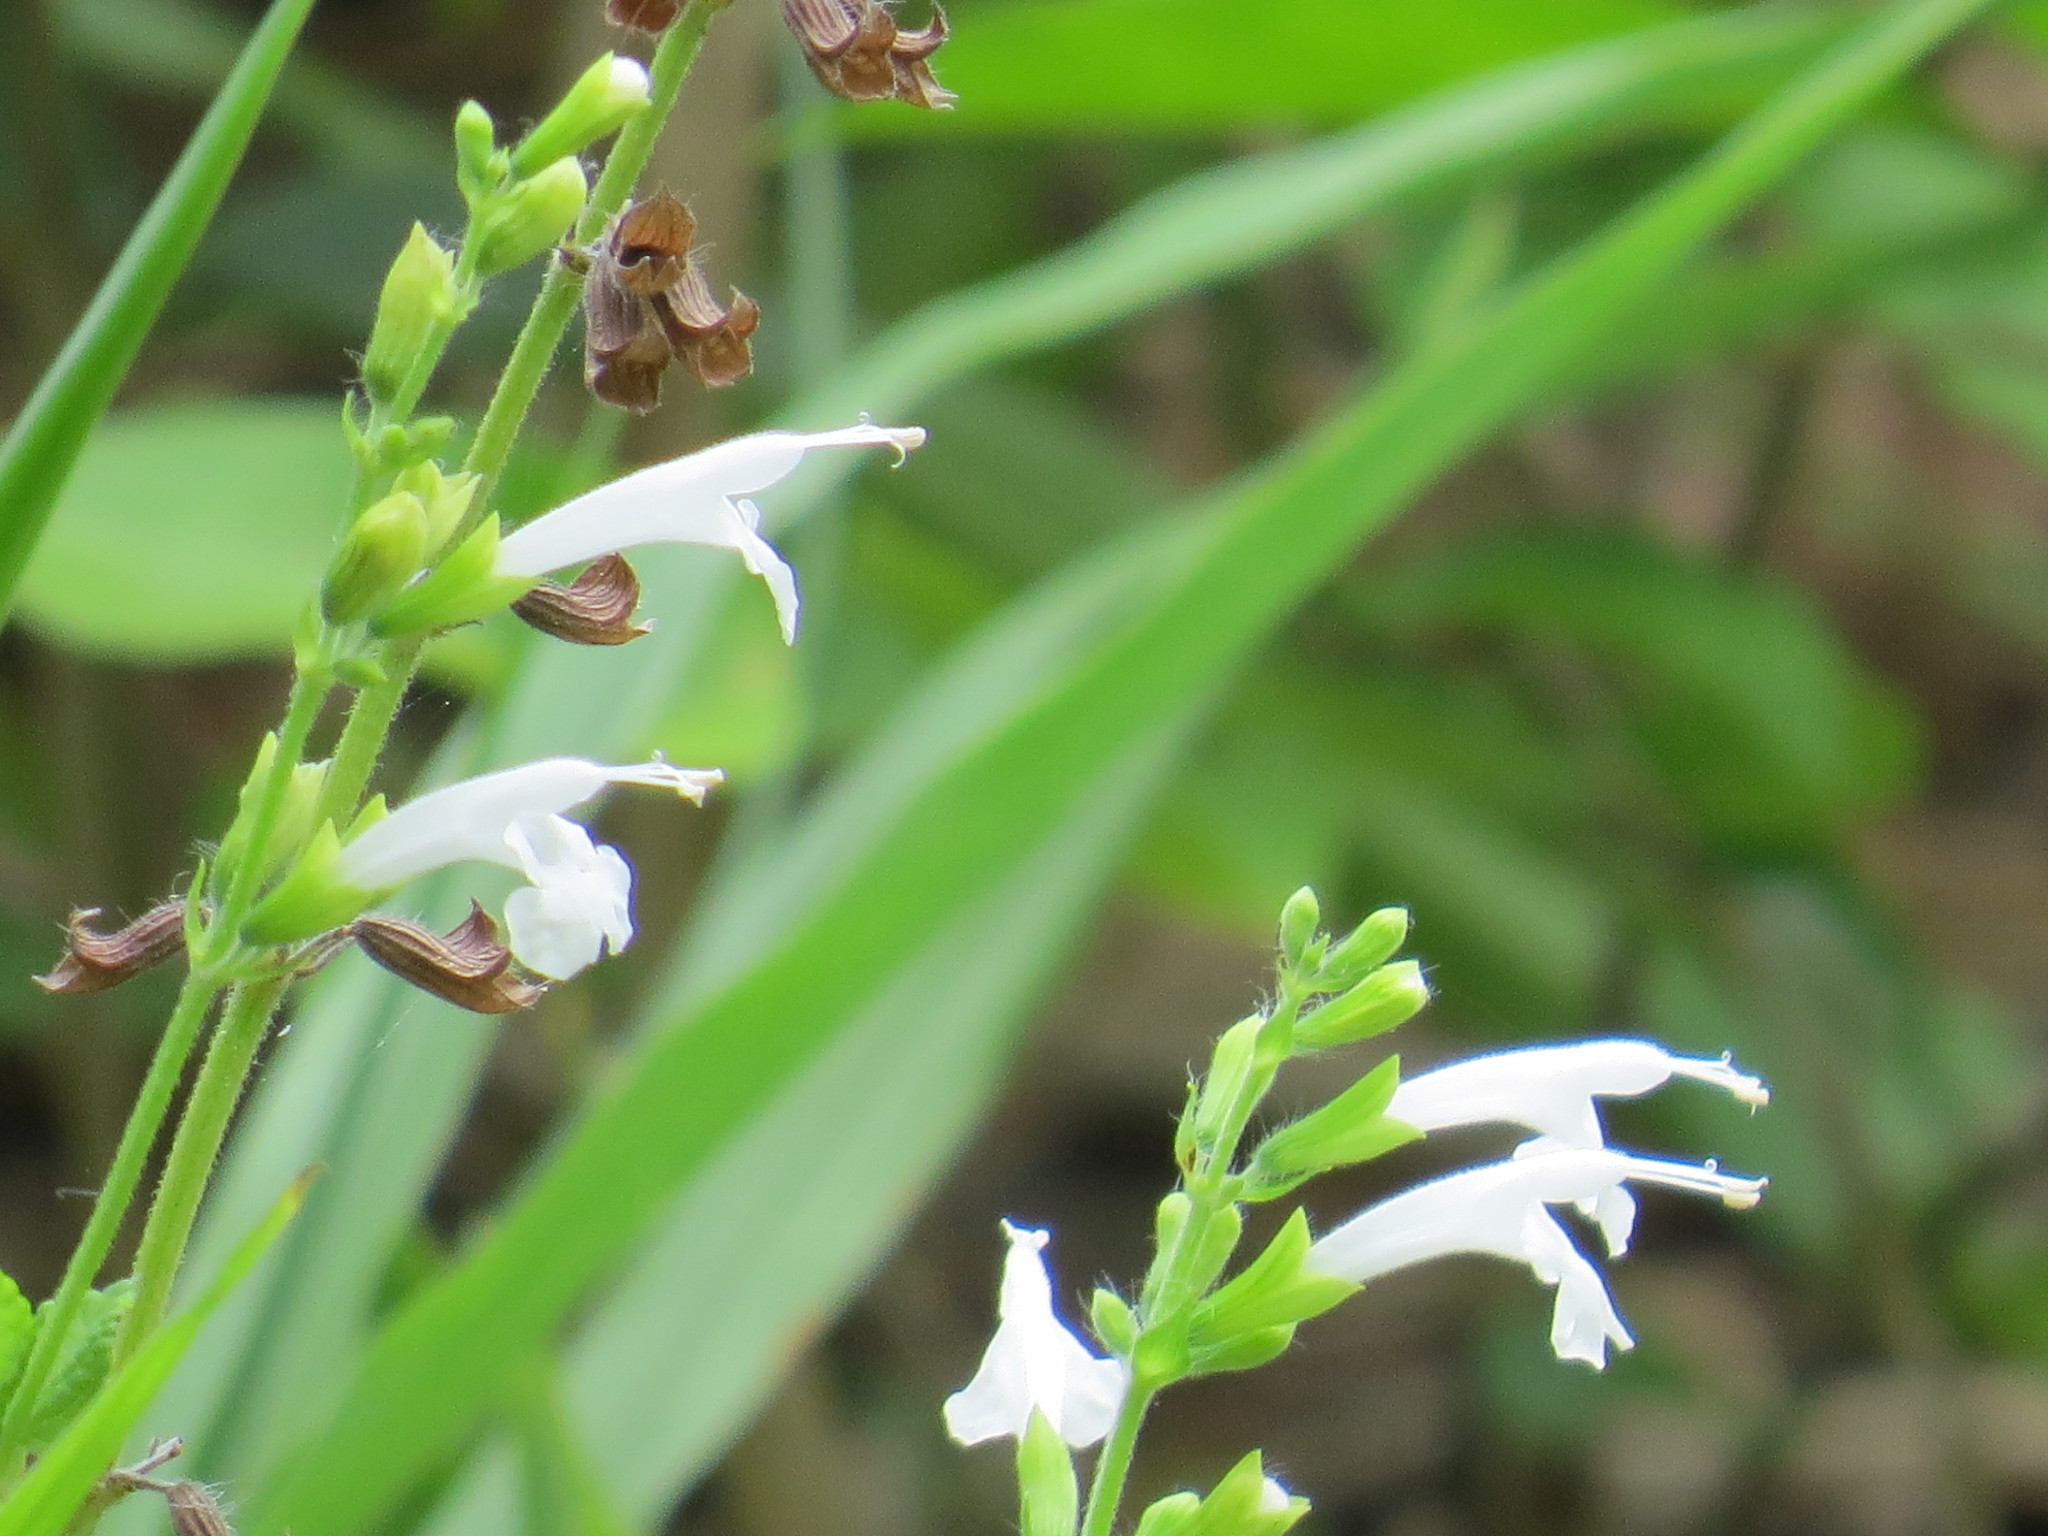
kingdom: Plantae
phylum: Tracheophyta
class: Magnoliopsida
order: Lamiales
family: Lamiaceae
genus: Salvia
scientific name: Salvia coccinea
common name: Blood sage
